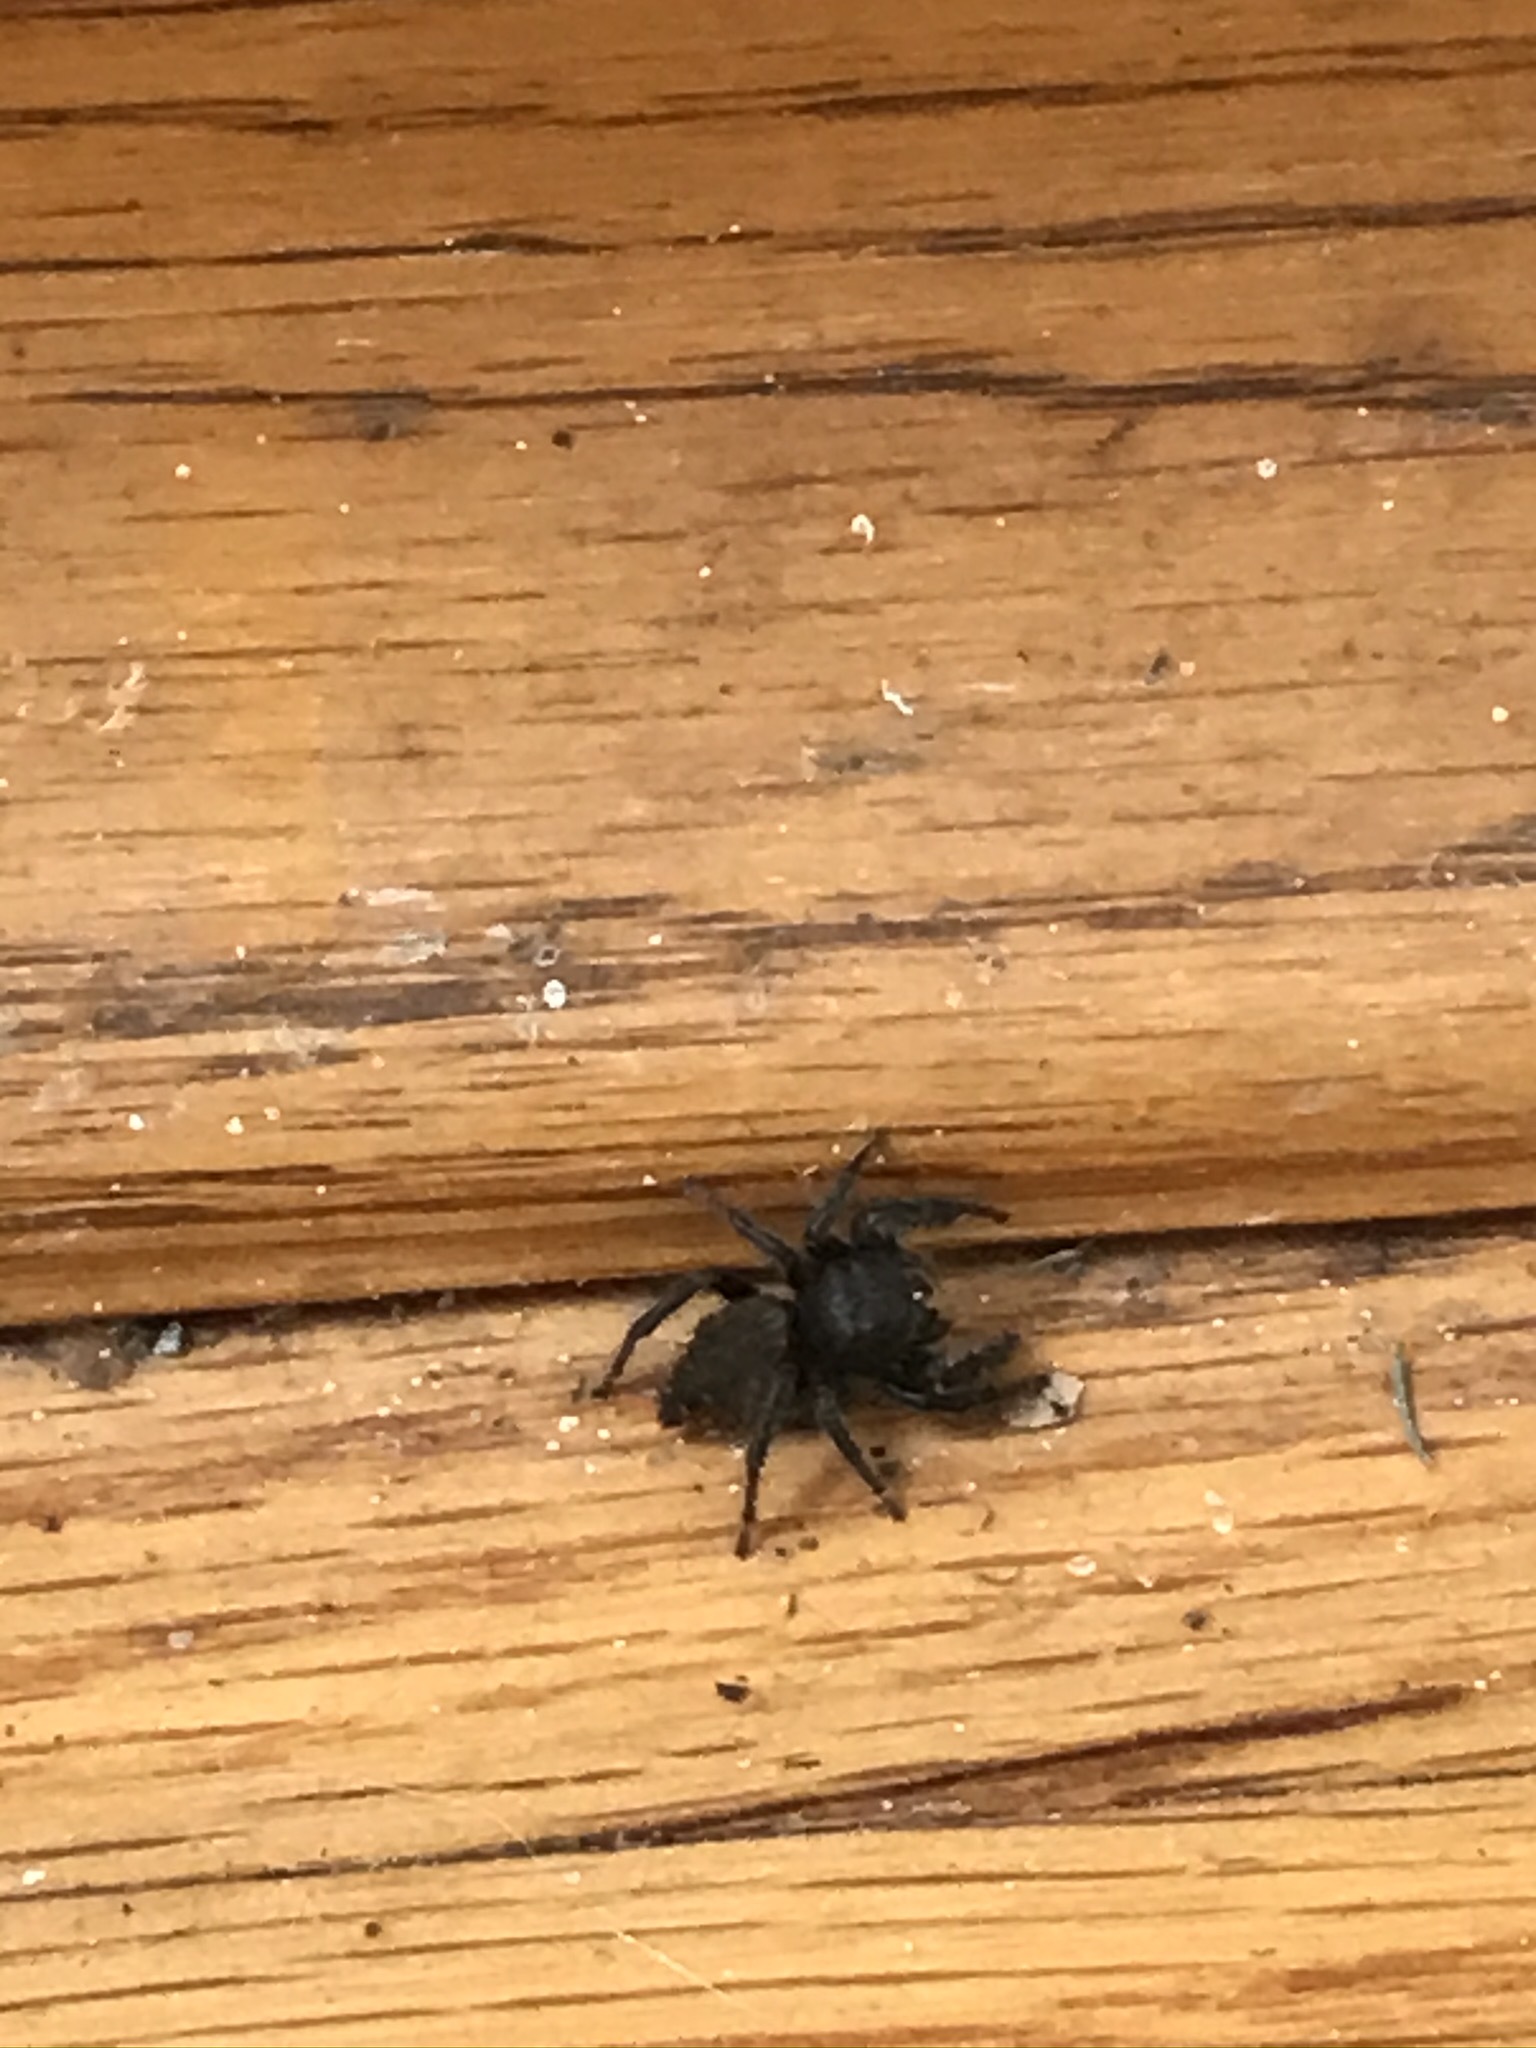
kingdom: Animalia
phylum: Arthropoda
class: Arachnida
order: Araneae
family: Salticidae
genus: Phidippus
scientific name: Phidippus johnsoni
